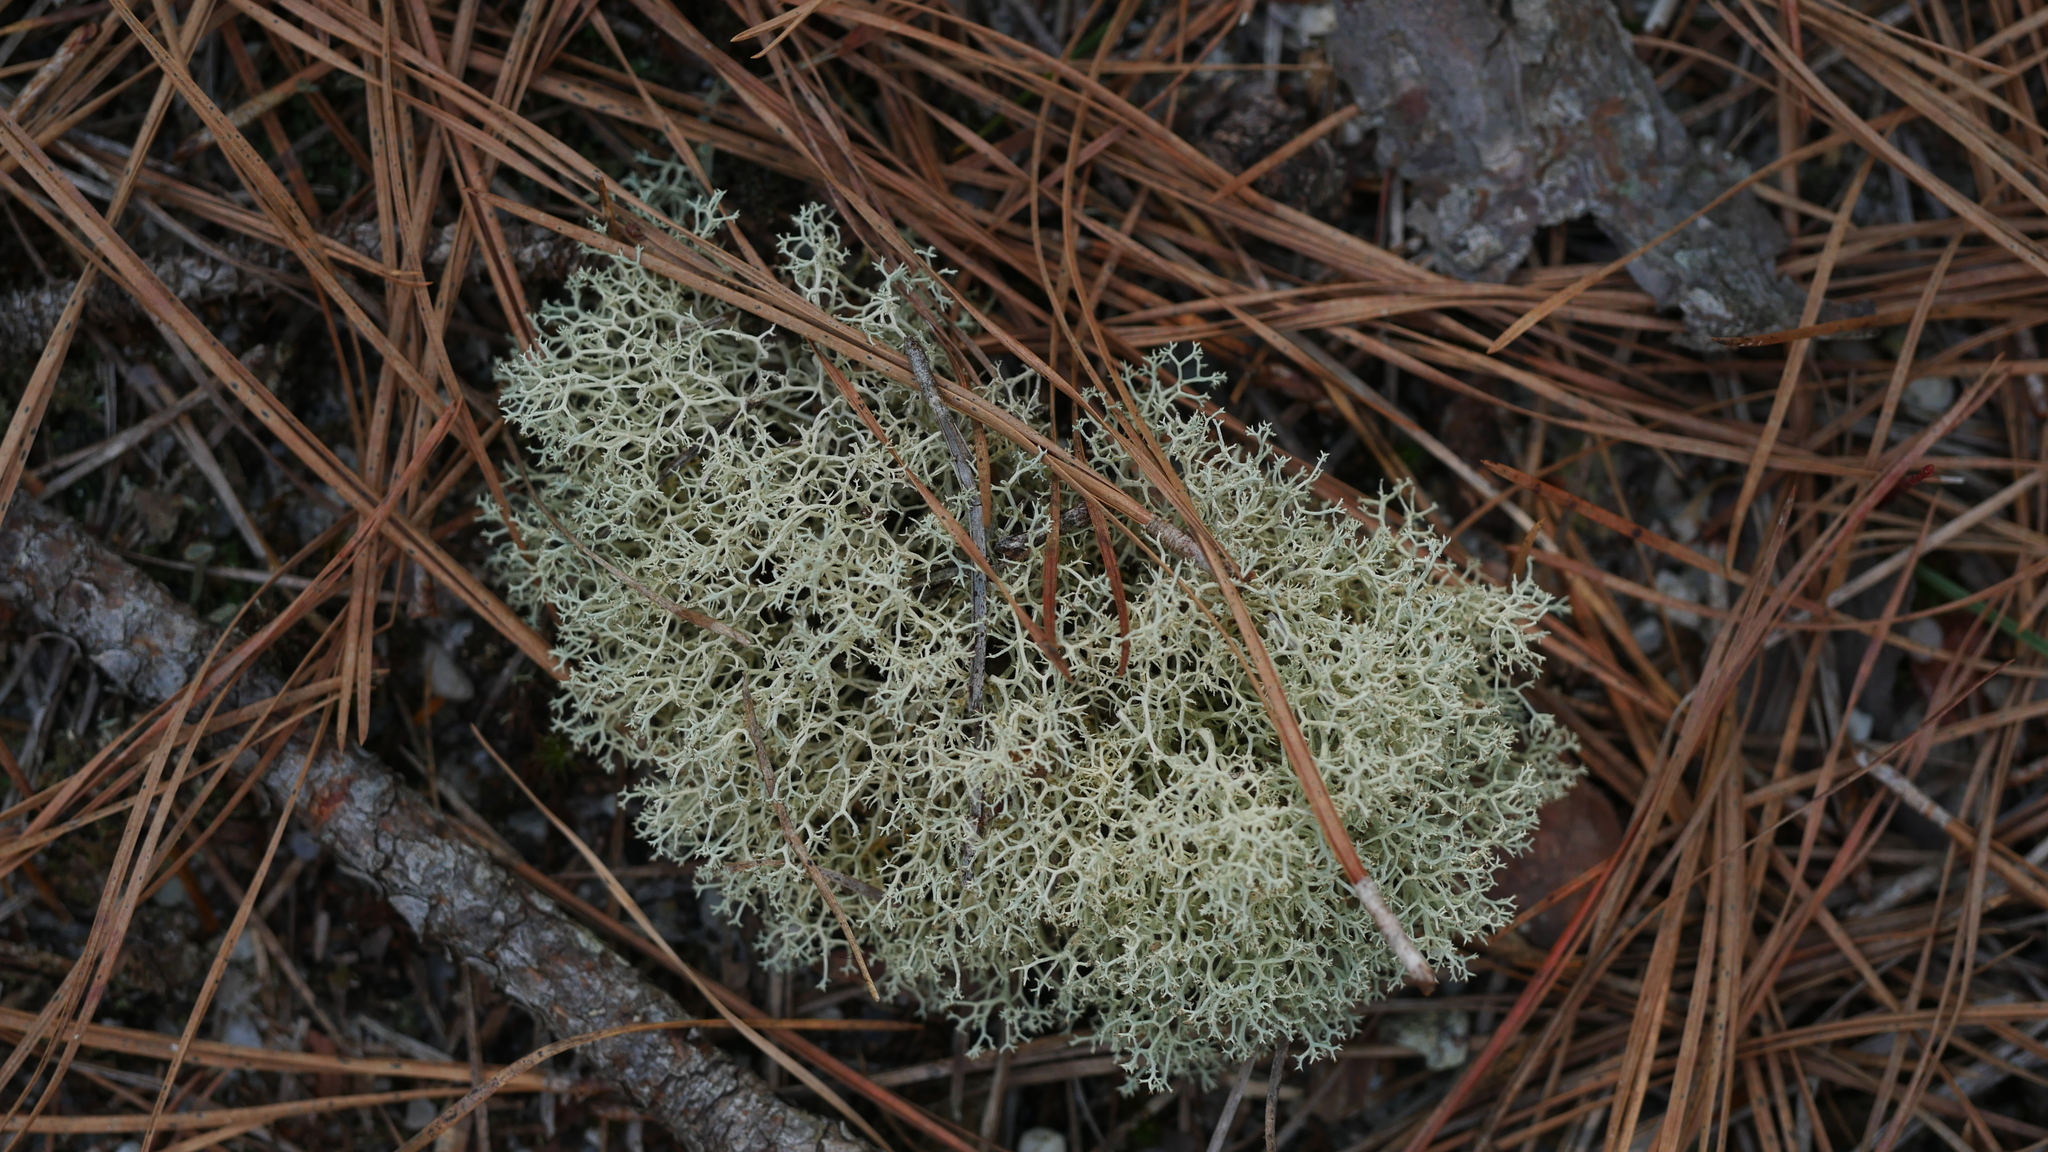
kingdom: Fungi
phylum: Ascomycota
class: Lecanoromycetes
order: Lecanorales
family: Cladoniaceae
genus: Cladonia
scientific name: Cladonia subtenuis
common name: Dixie reindeer lichen
